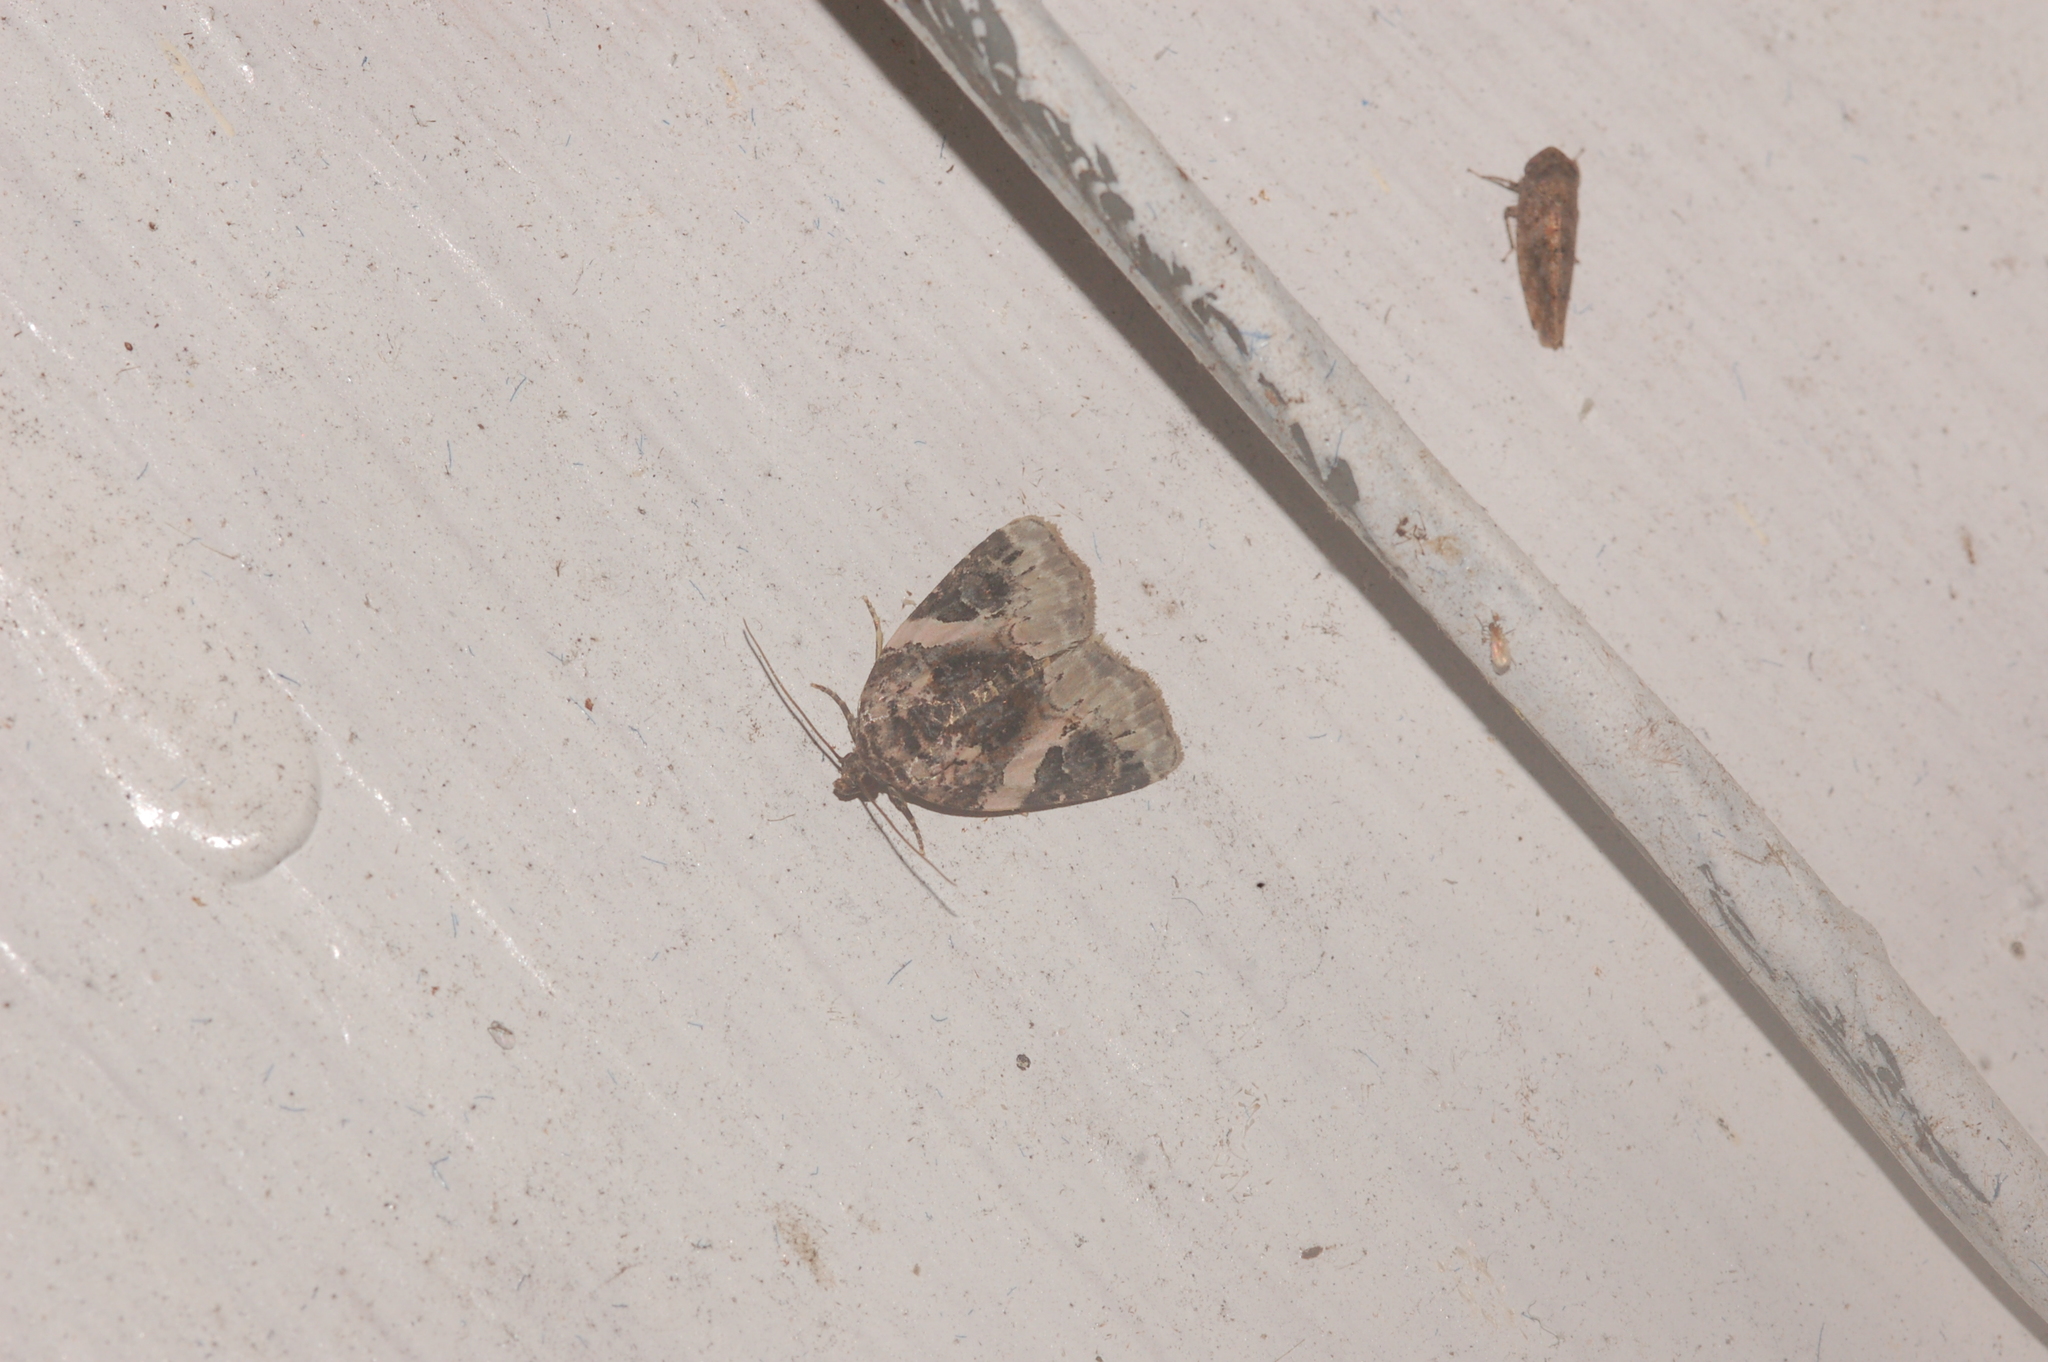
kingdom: Animalia
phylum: Arthropoda
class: Insecta
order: Lepidoptera
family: Noctuidae
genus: Pseudeustrotia
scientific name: Pseudeustrotia carneola
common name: Pink-barred lithacodia moth
